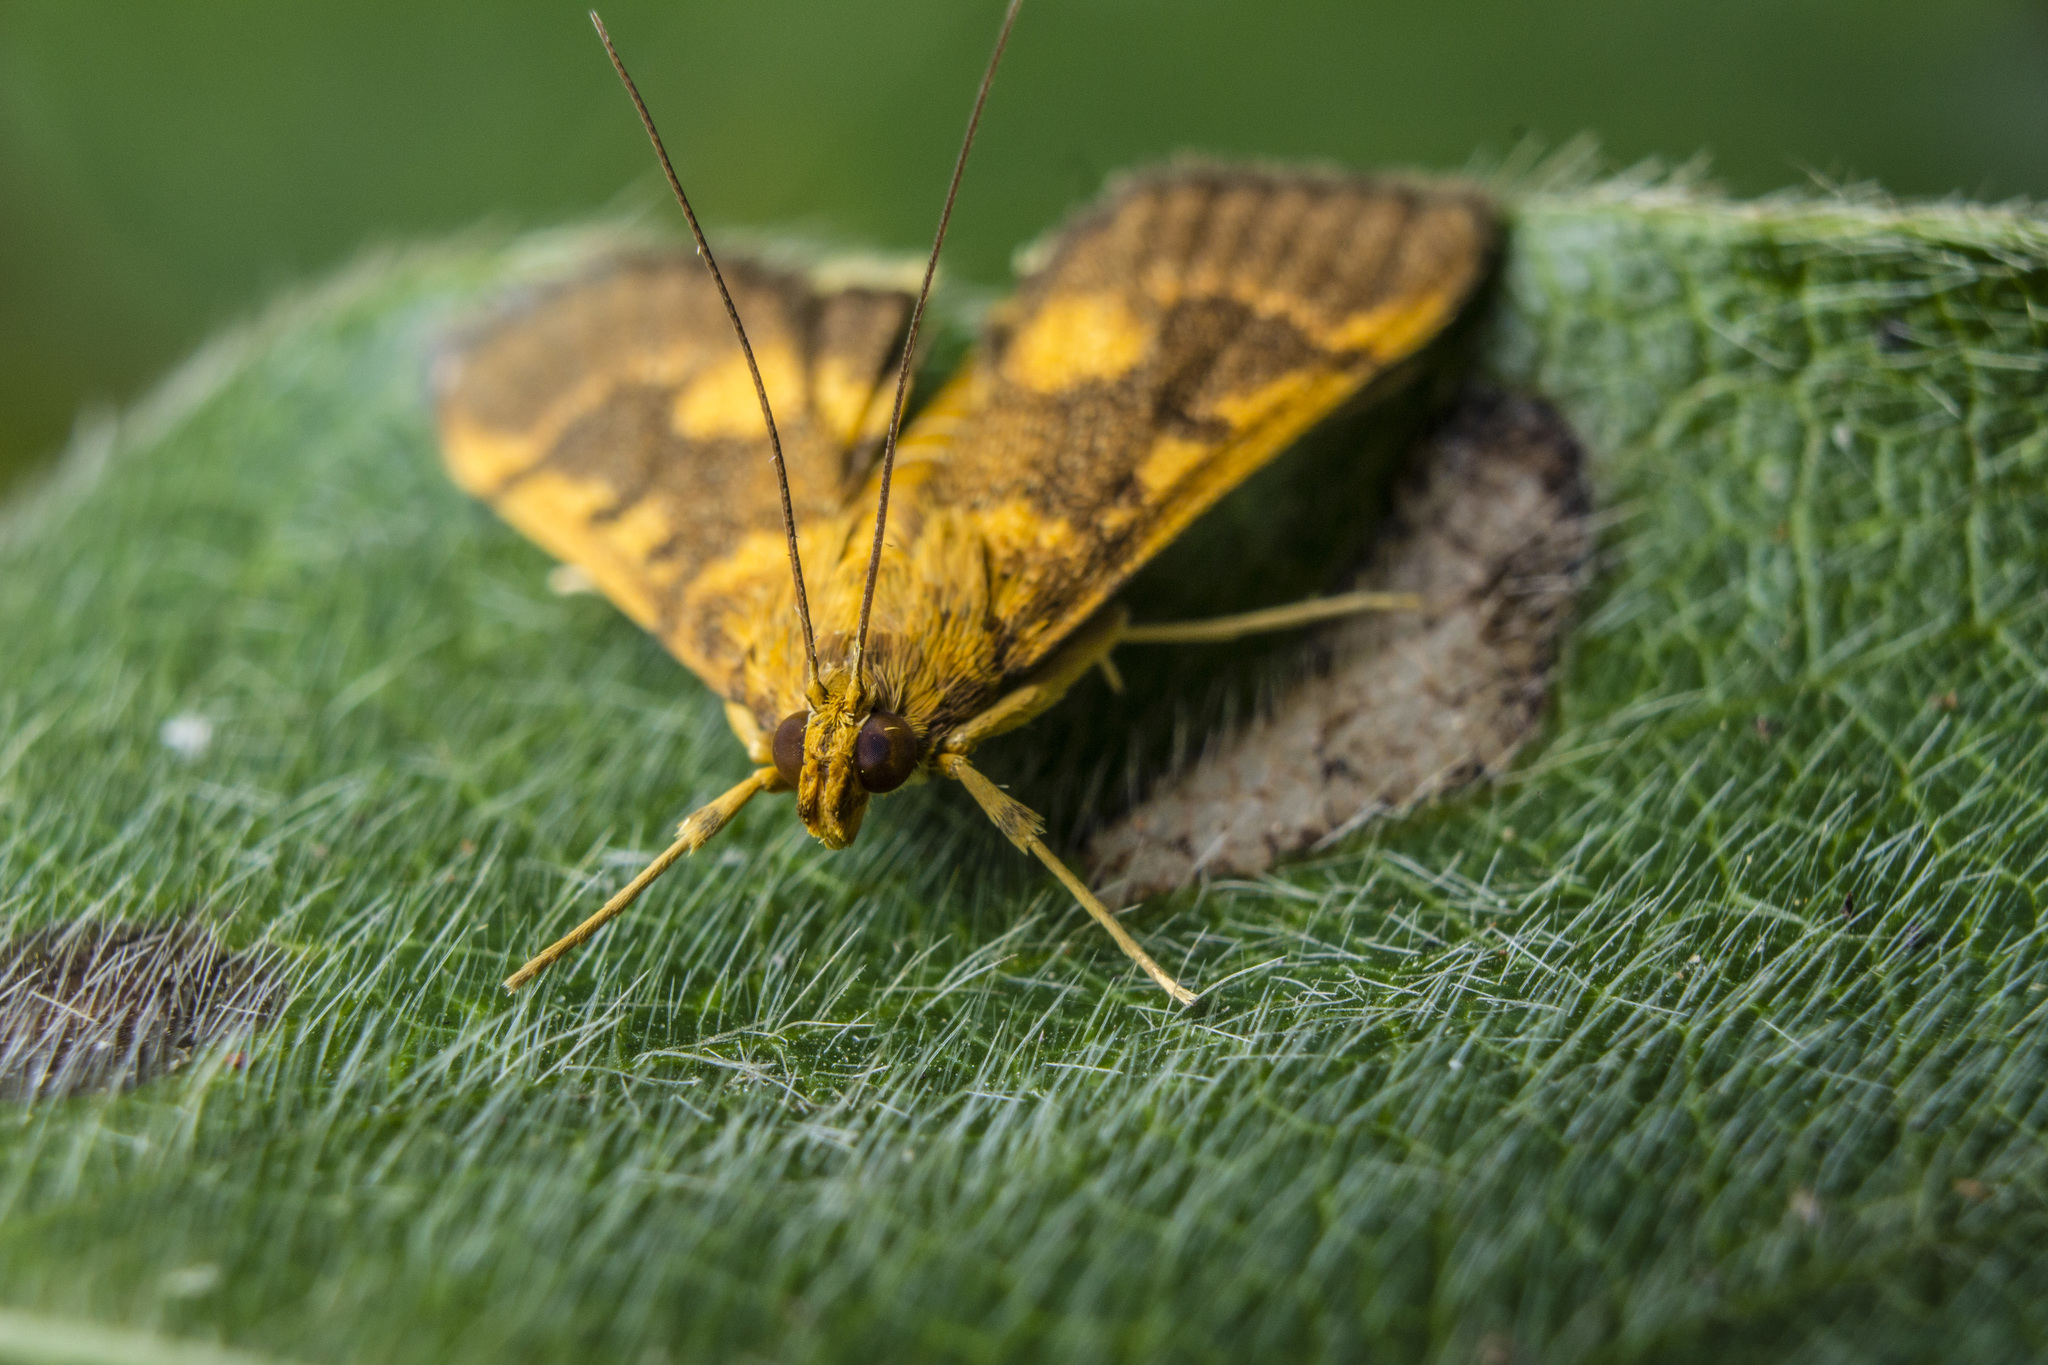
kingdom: Animalia
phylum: Arthropoda
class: Insecta
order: Lepidoptera
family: Crambidae
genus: Omiodes
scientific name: Omiodes diemenalis
